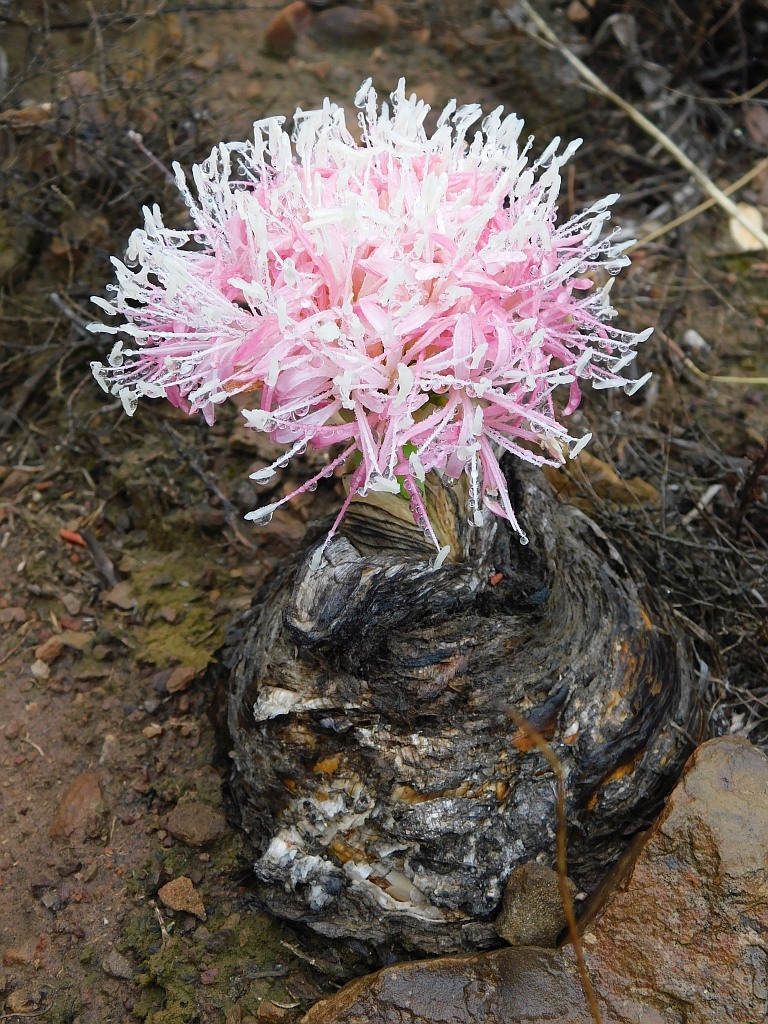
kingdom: Plantae
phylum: Tracheophyta
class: Liliopsida
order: Asparagales
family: Amaryllidaceae
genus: Boophone
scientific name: Boophone disticha
